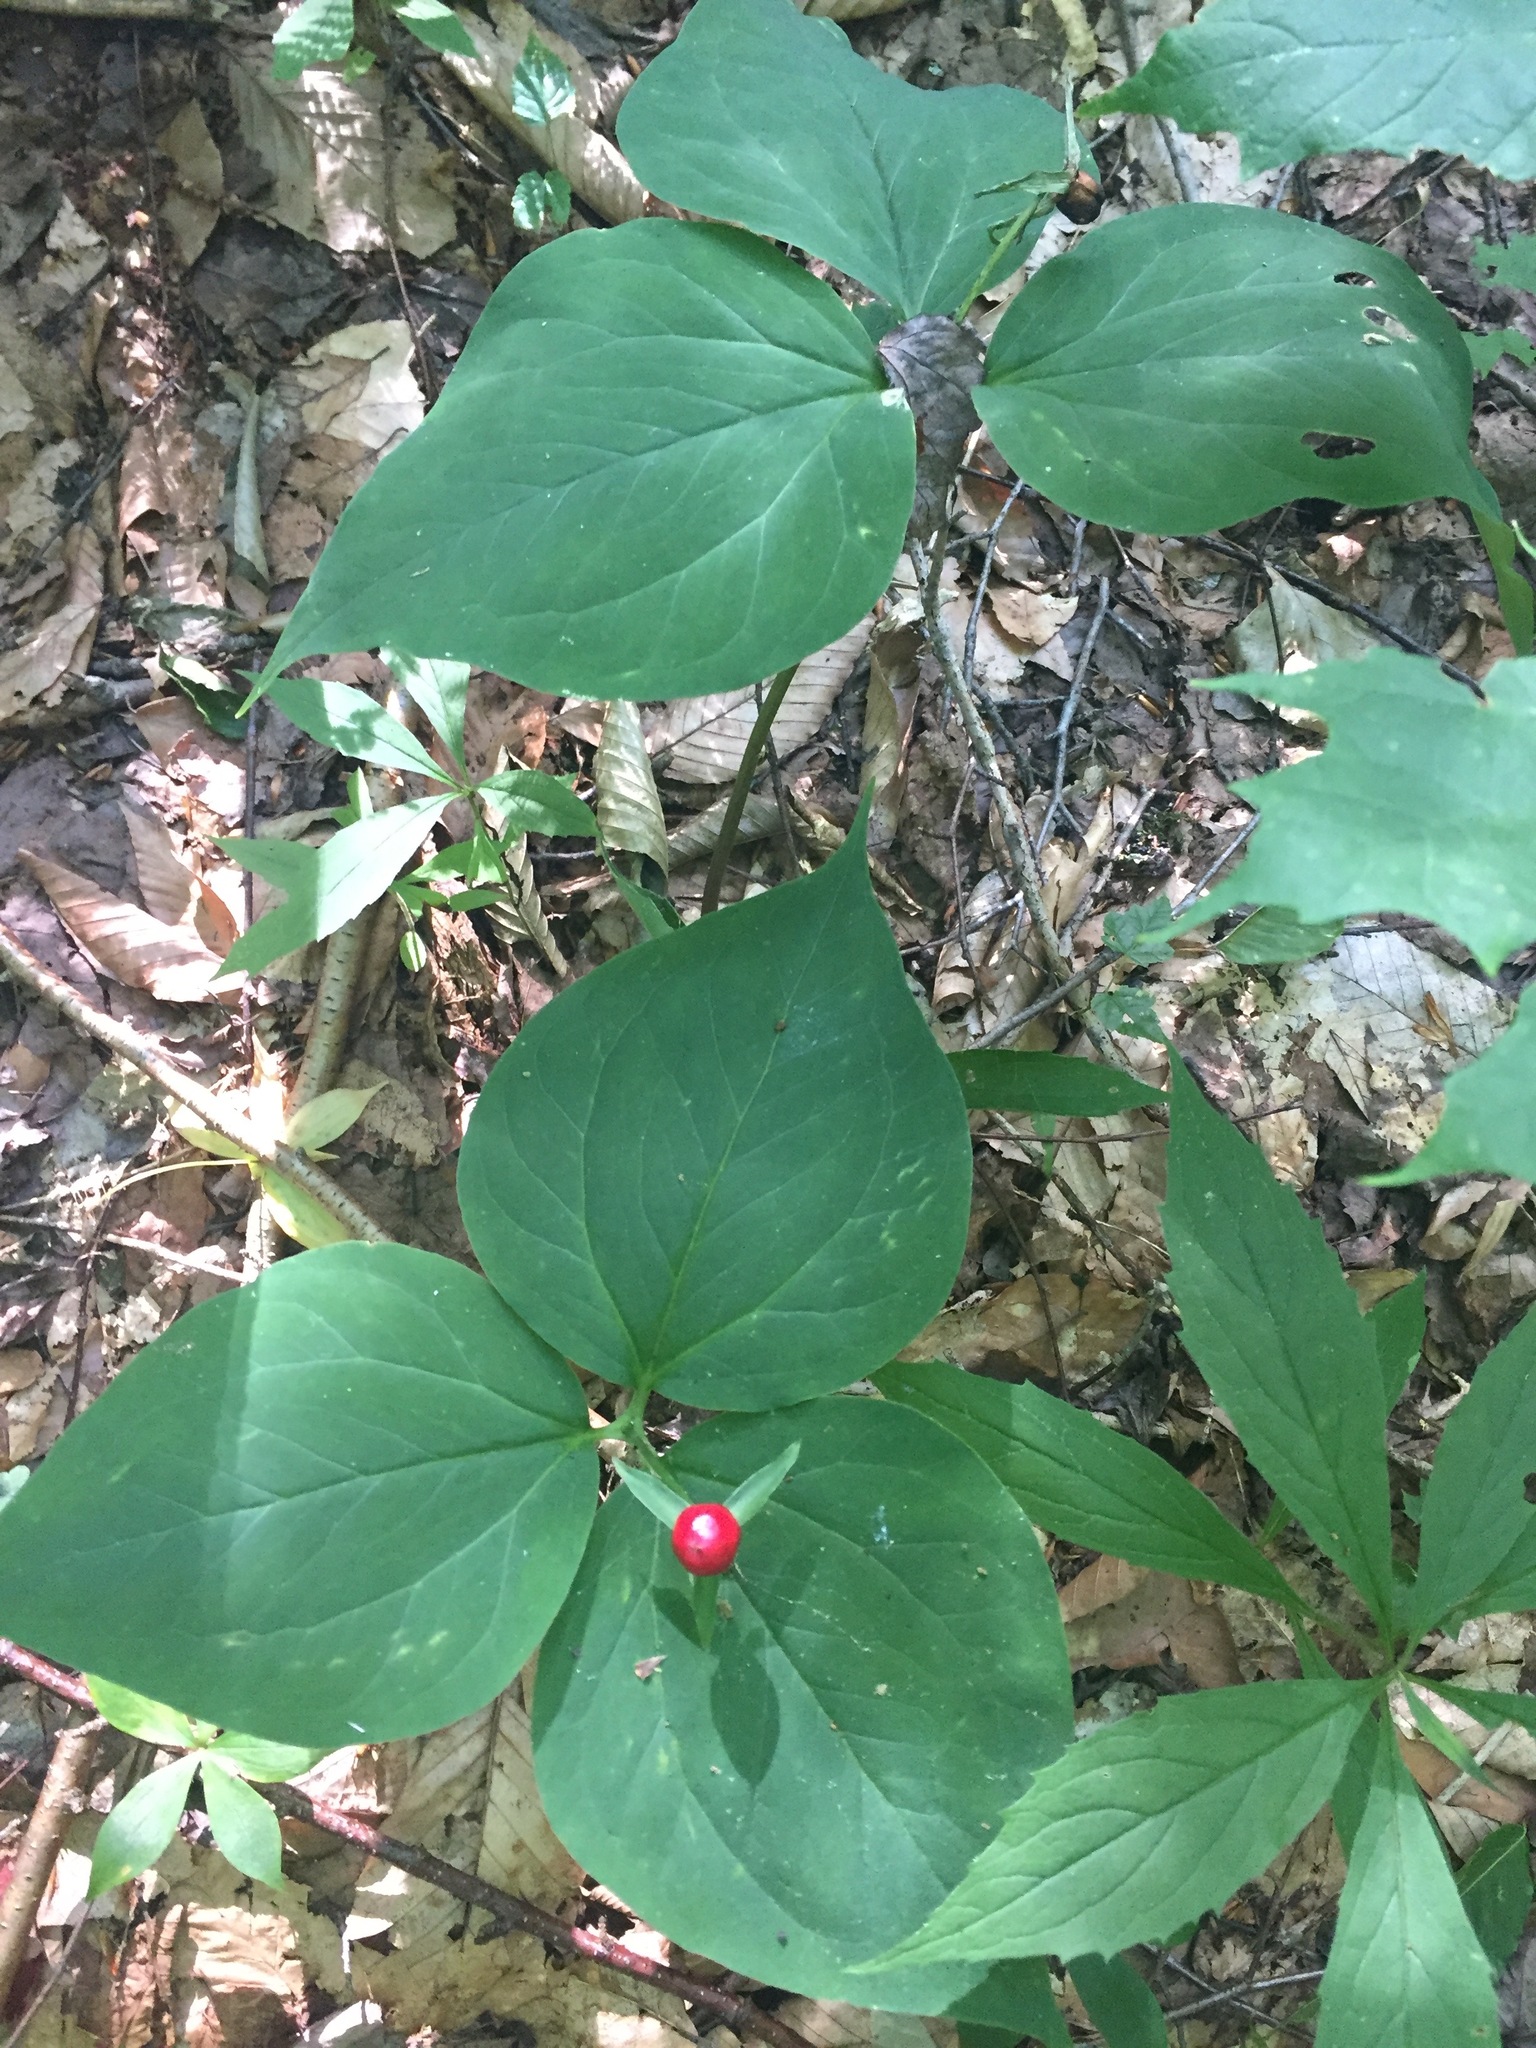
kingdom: Plantae
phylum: Tracheophyta
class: Liliopsida
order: Liliales
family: Melanthiaceae
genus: Trillium
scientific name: Trillium undulatum
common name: Paint trillium
